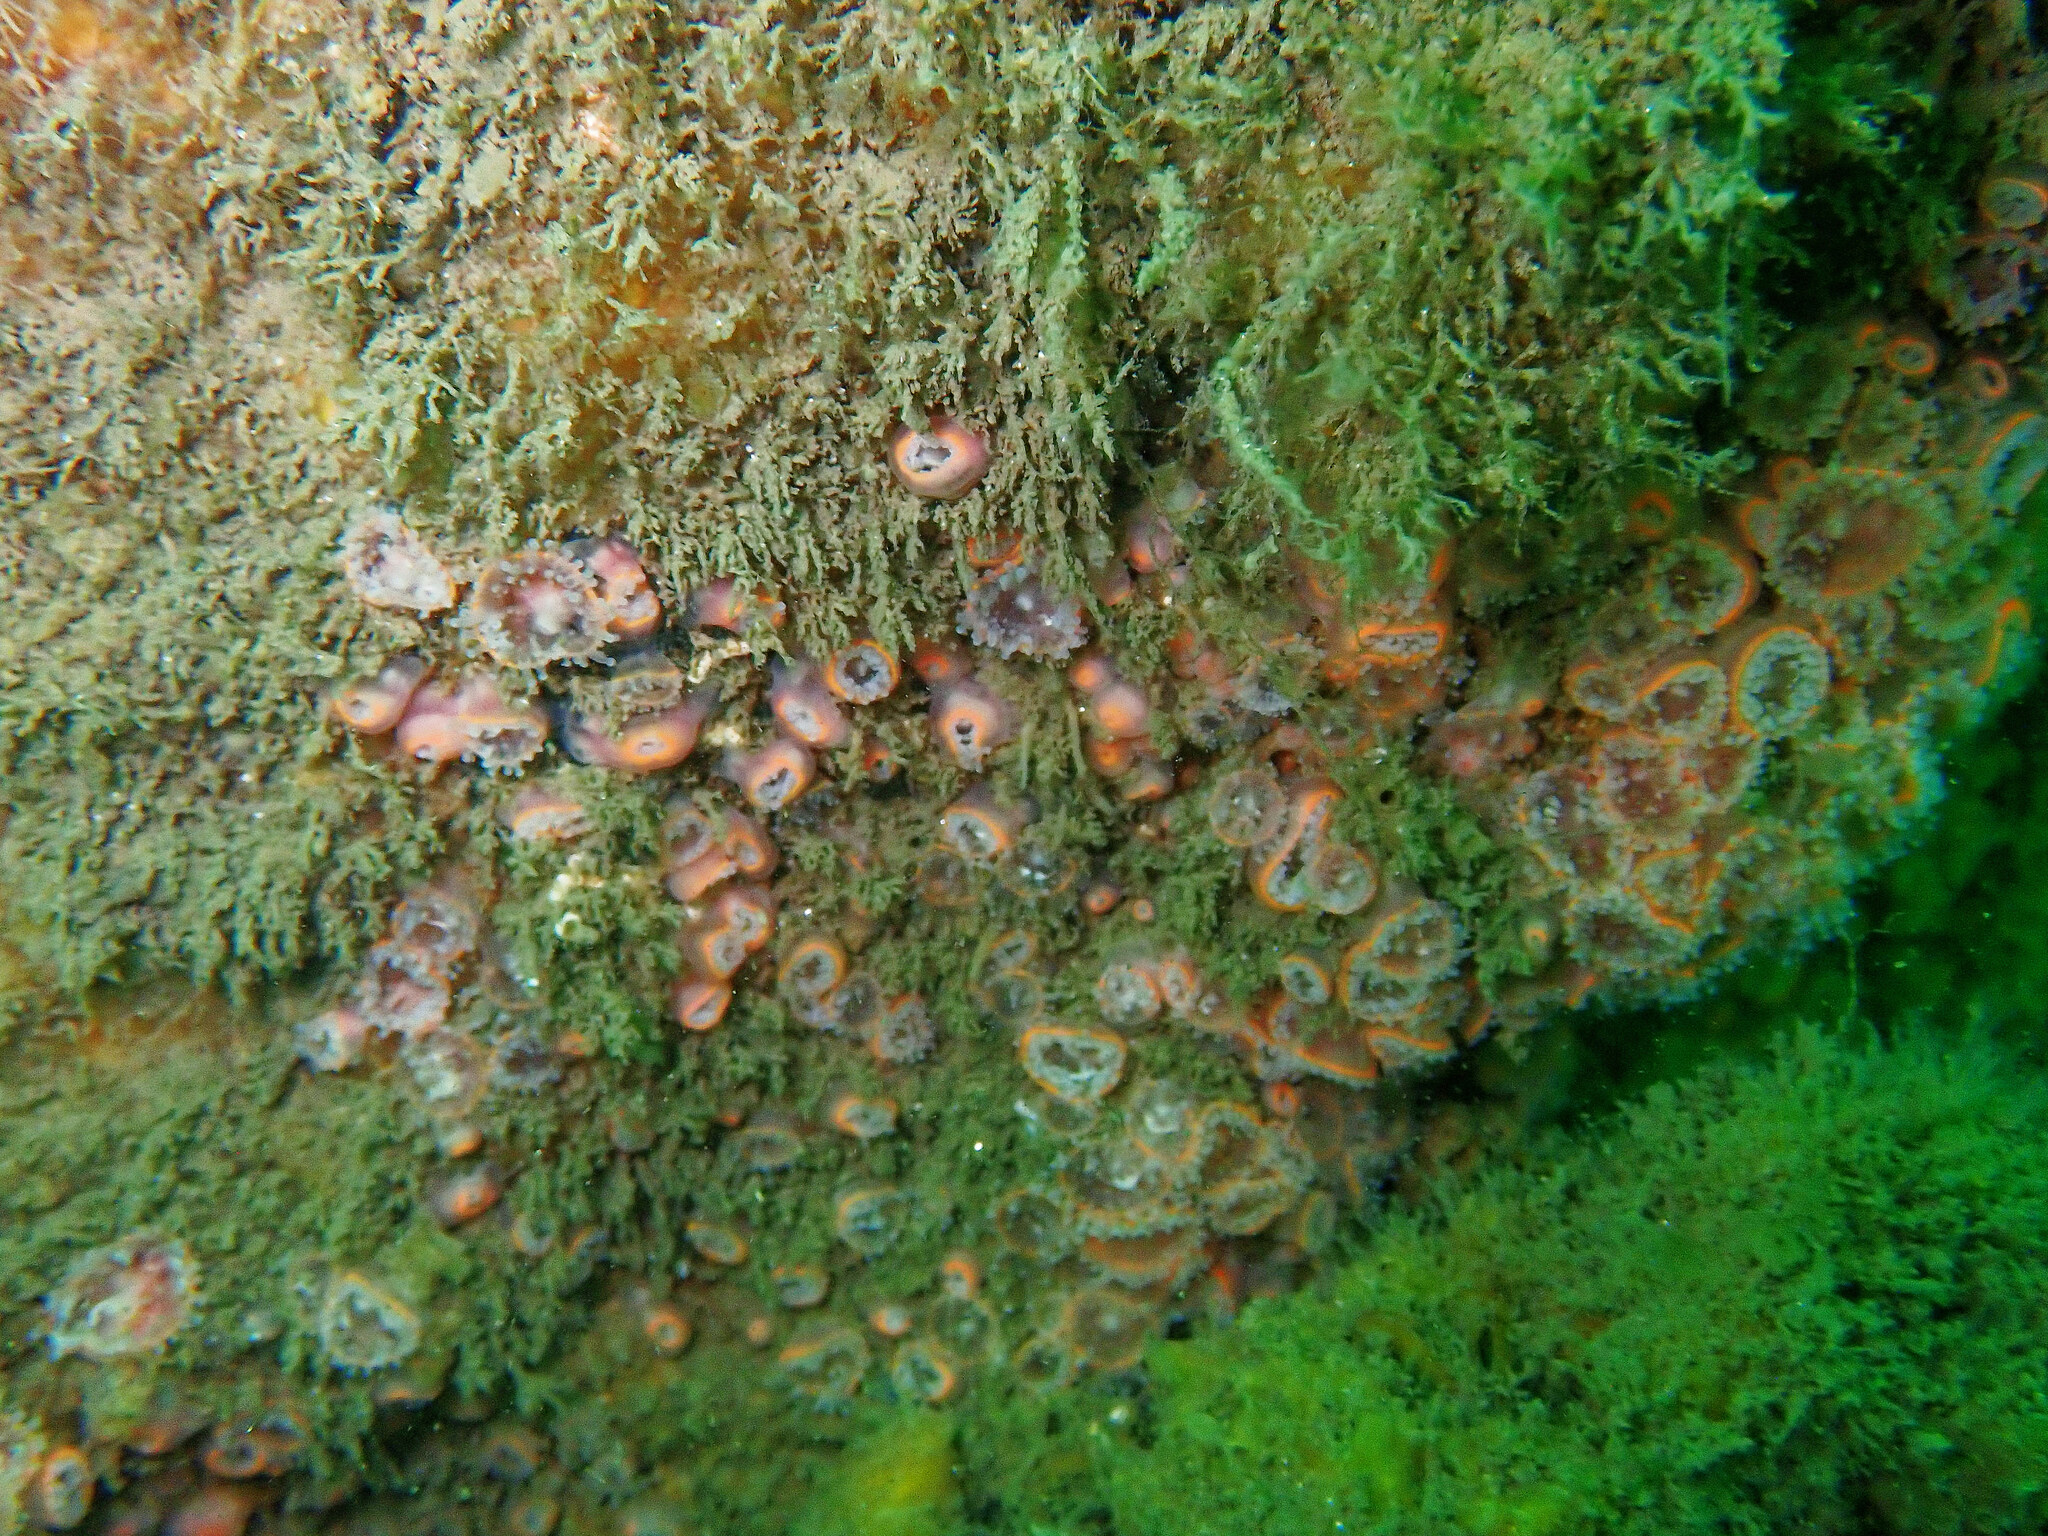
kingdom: Animalia
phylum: Cnidaria
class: Anthozoa
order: Corallimorpharia
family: Corallimorphidae
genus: Corynactis
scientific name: Corynactis viridis
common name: Jewel anemone
